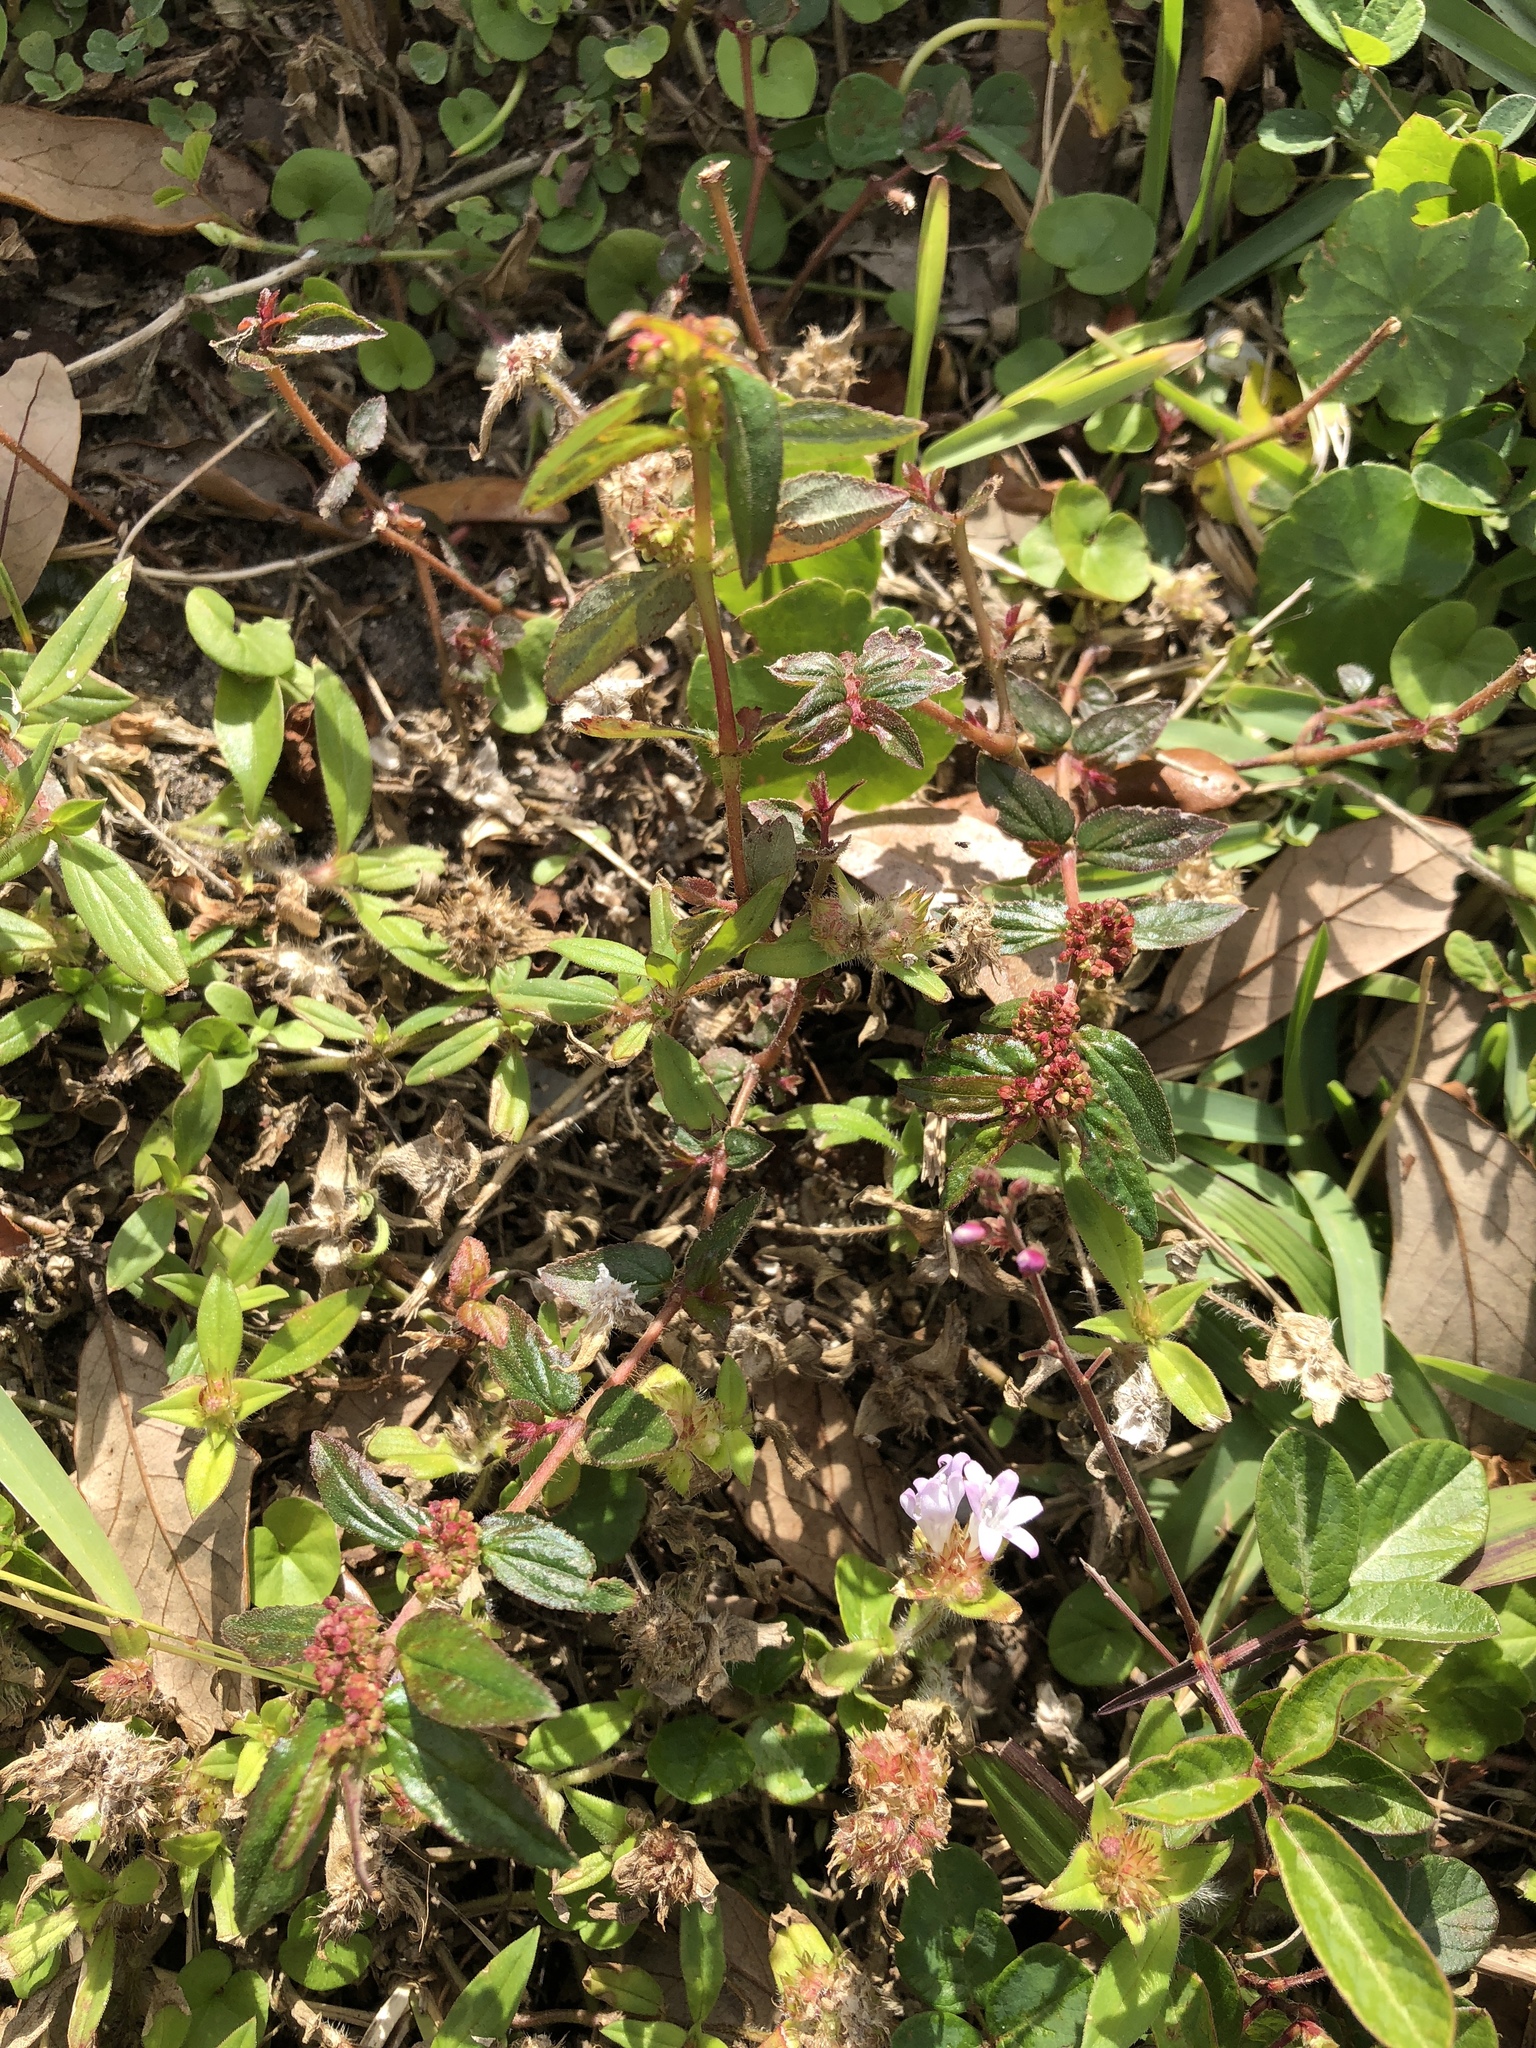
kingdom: Plantae
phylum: Tracheophyta
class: Magnoliopsida
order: Malpighiales
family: Euphorbiaceae
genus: Euphorbia
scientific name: Euphorbia hirta
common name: Pillpod sandmat
